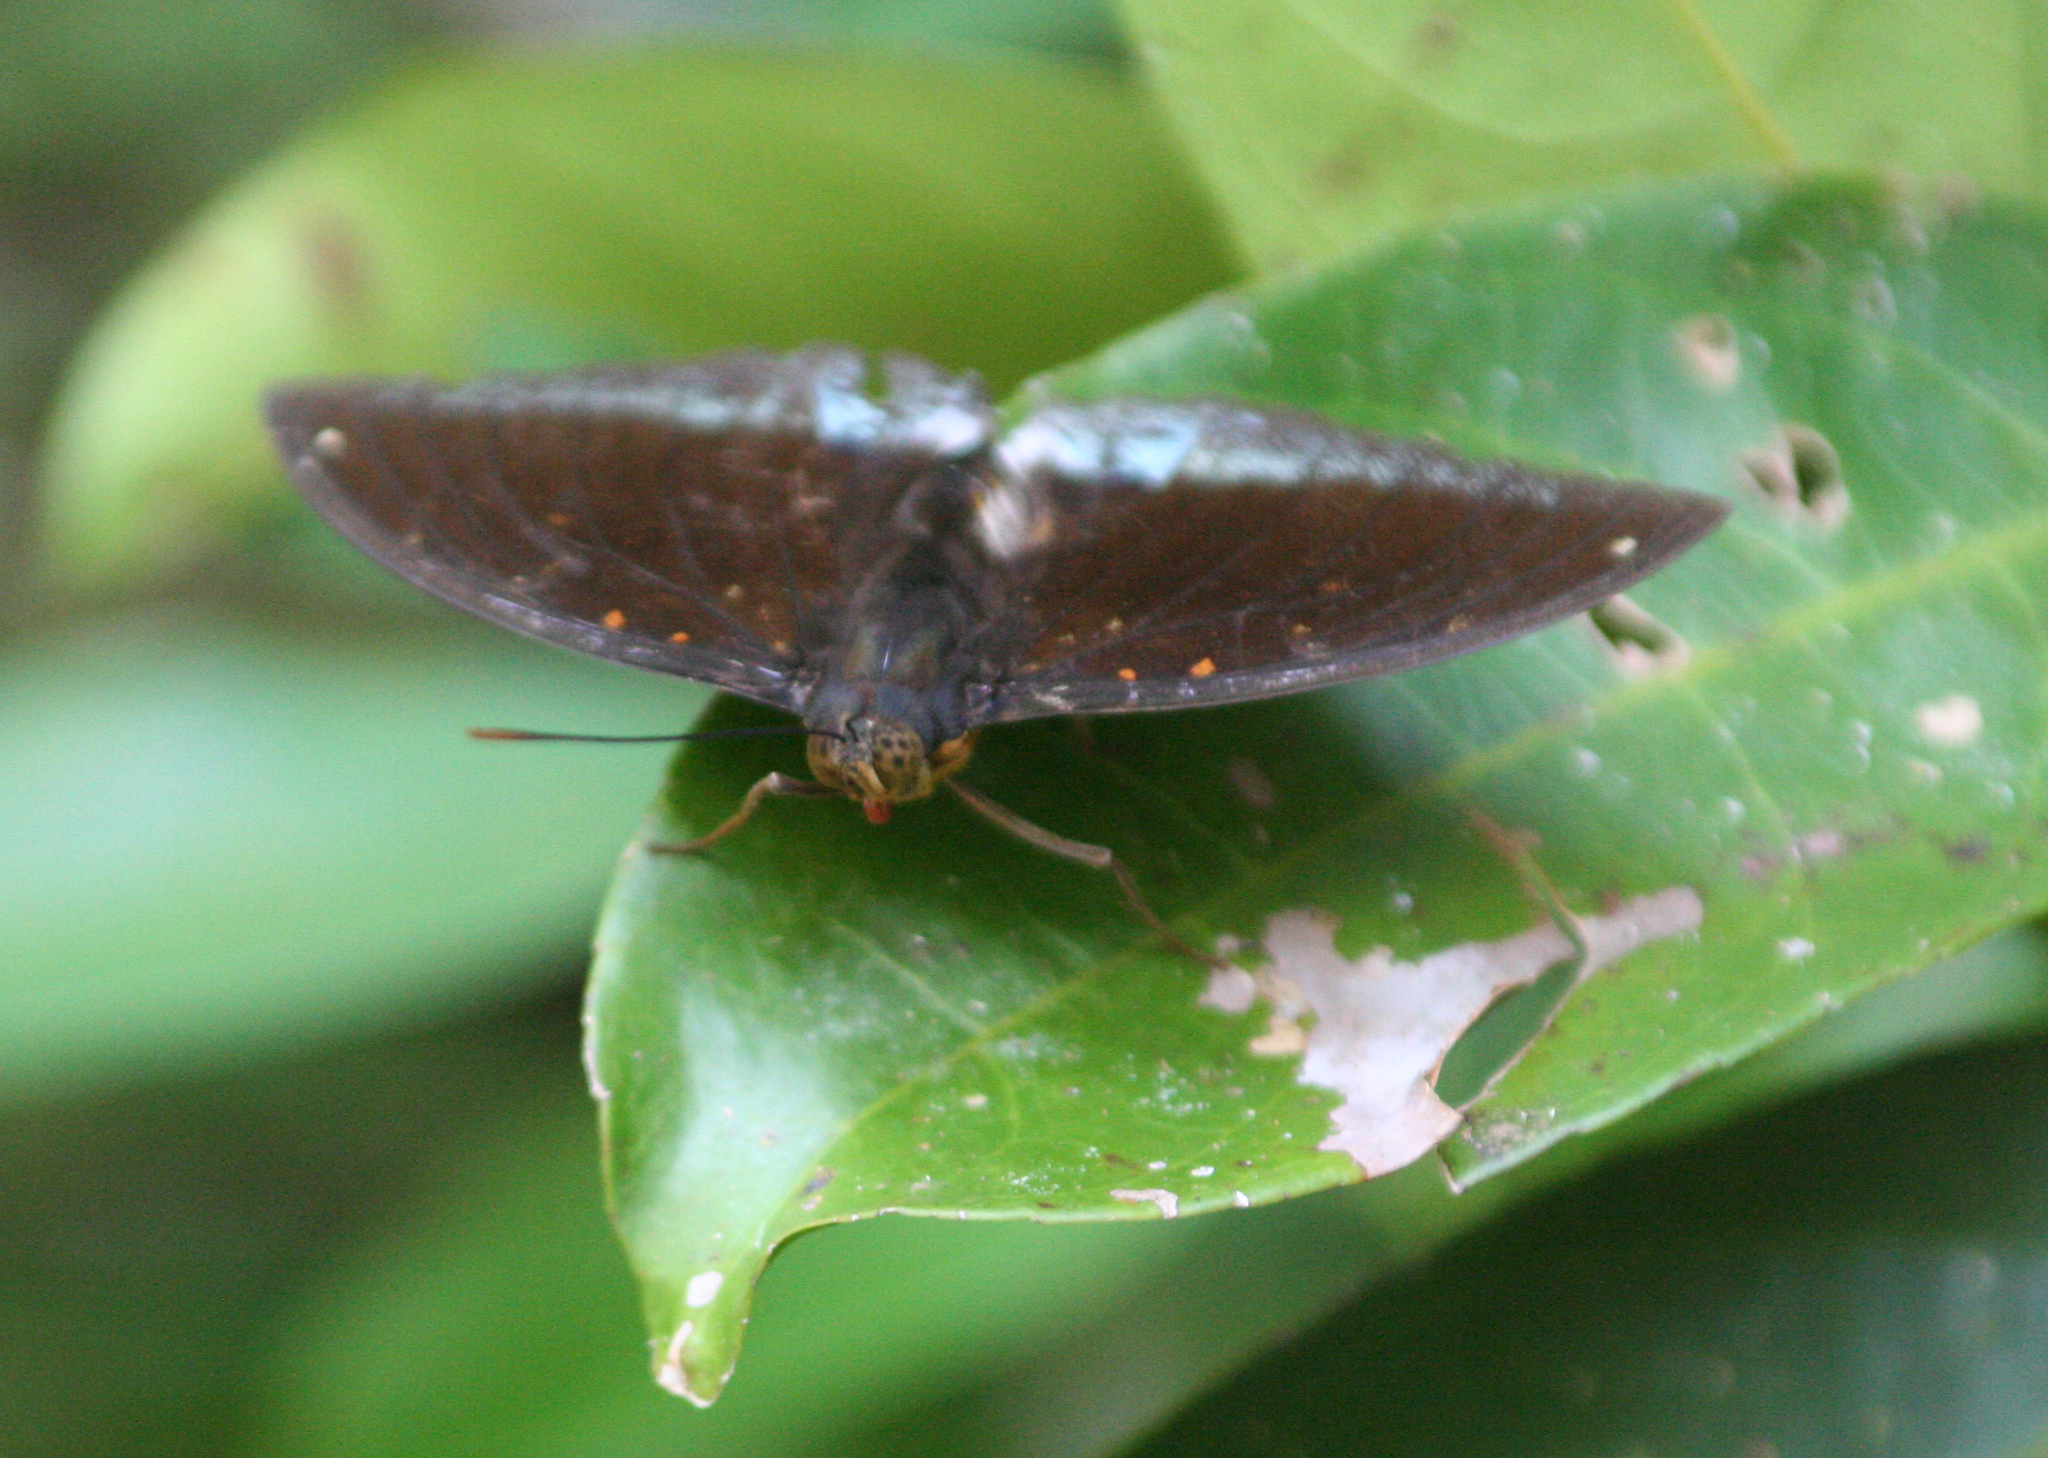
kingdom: Animalia
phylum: Arthropoda
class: Insecta
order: Lepidoptera
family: Nymphalidae
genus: Lexias
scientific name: Lexias pardalis
